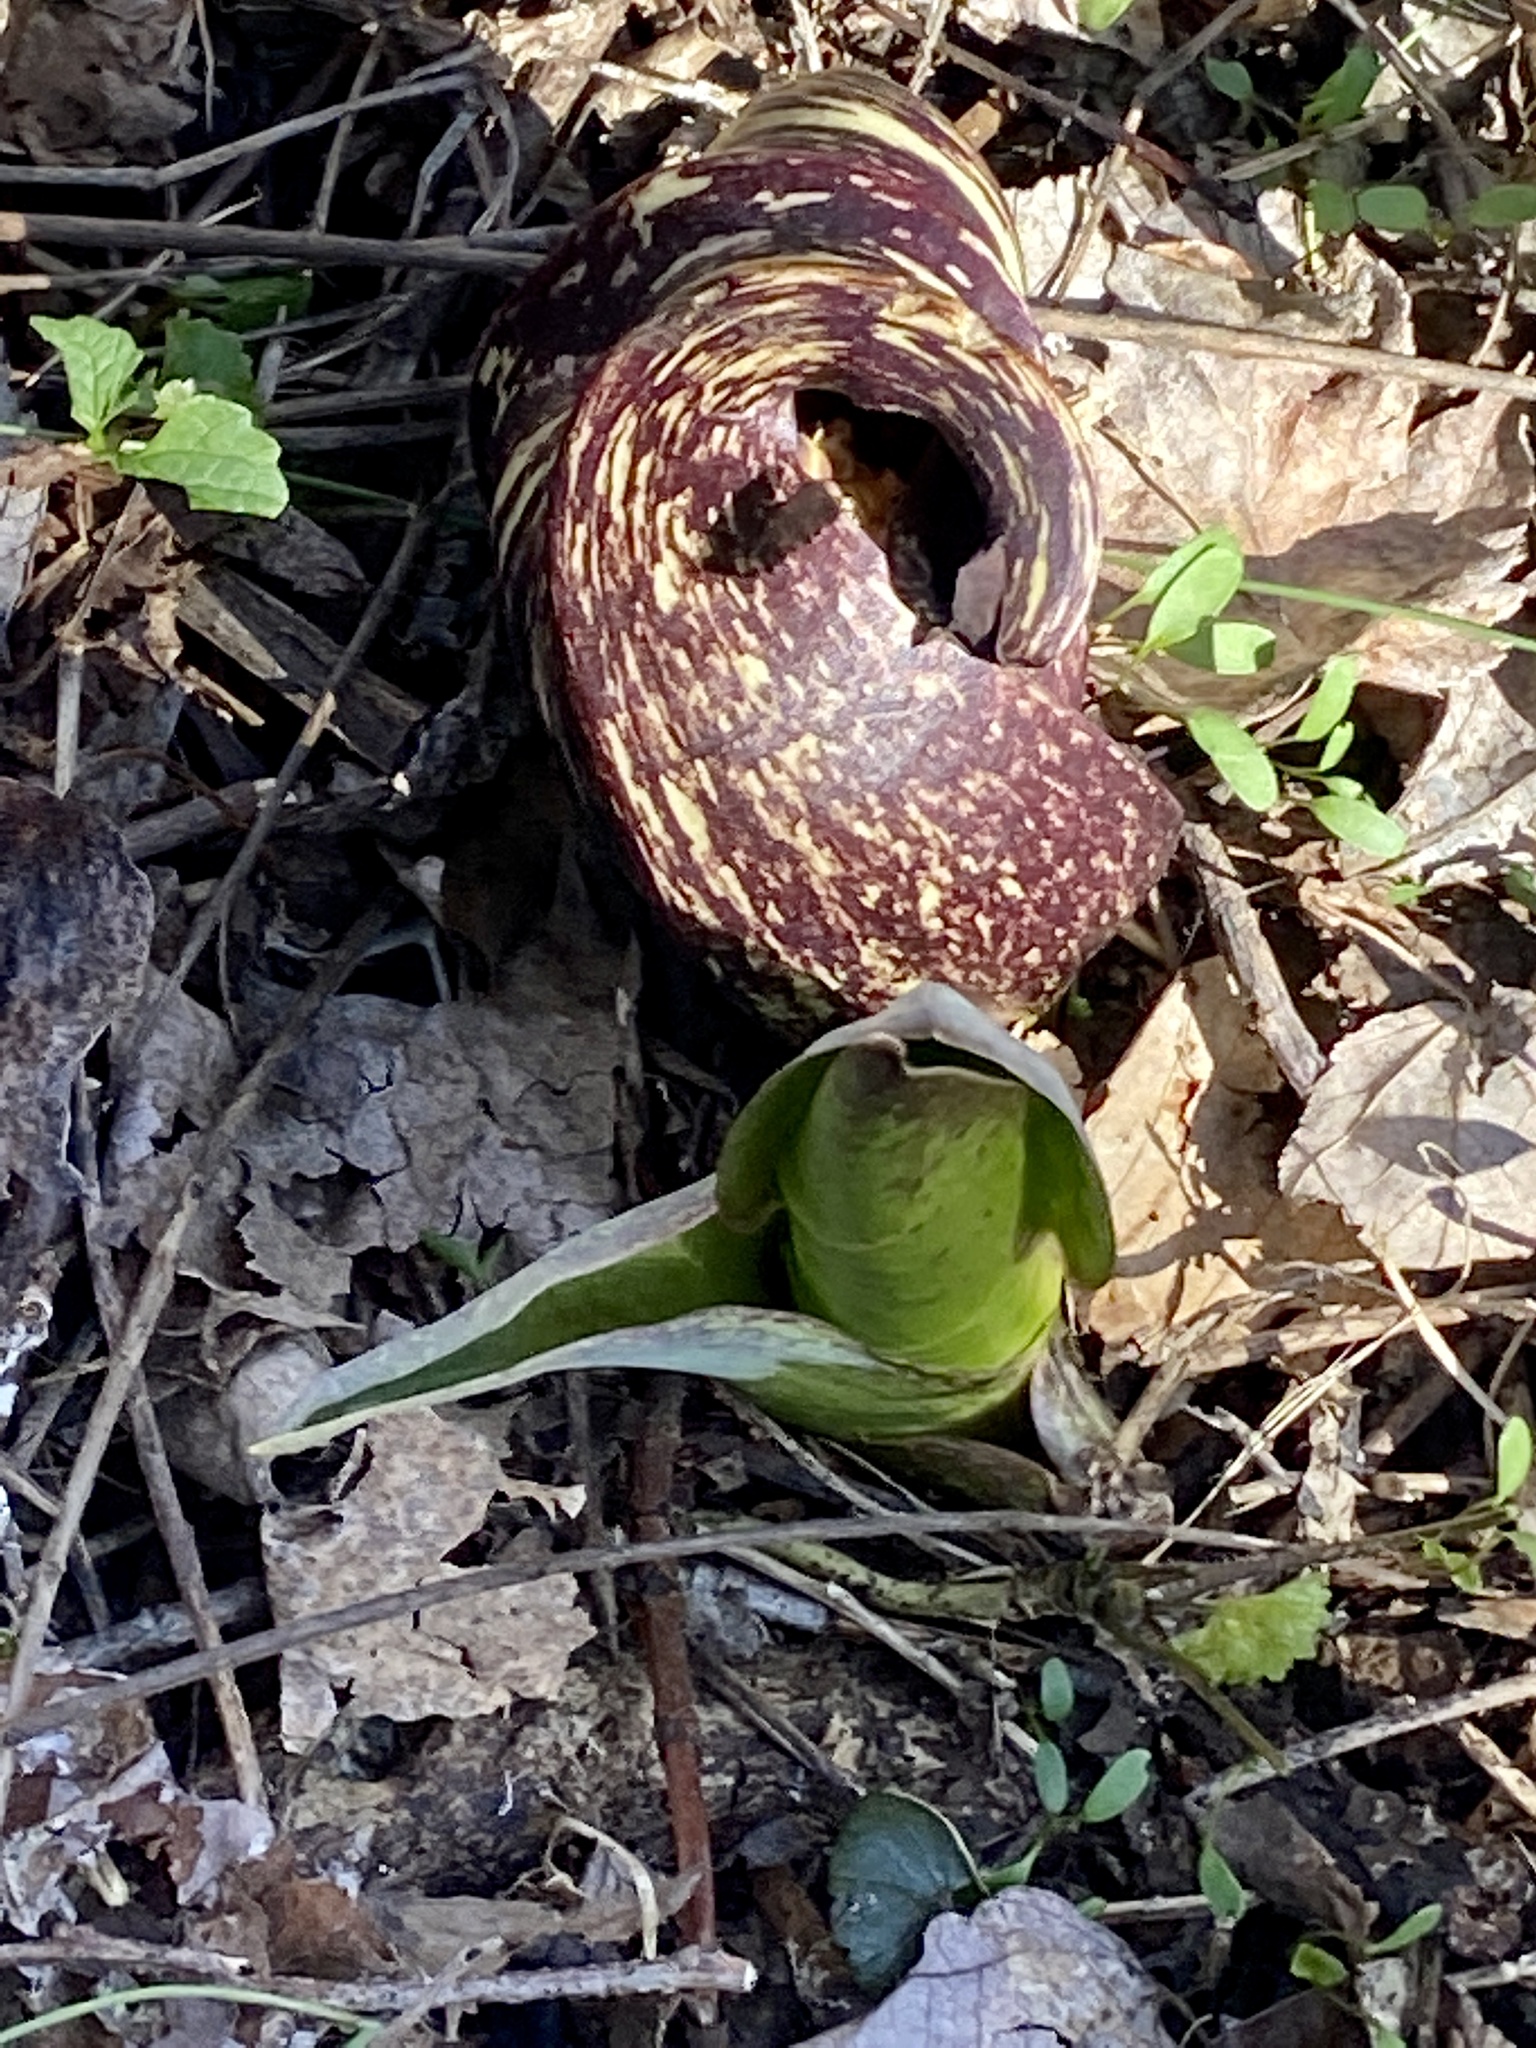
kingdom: Plantae
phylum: Tracheophyta
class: Liliopsida
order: Alismatales
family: Araceae
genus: Symplocarpus
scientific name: Symplocarpus foetidus
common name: Eastern skunk cabbage
